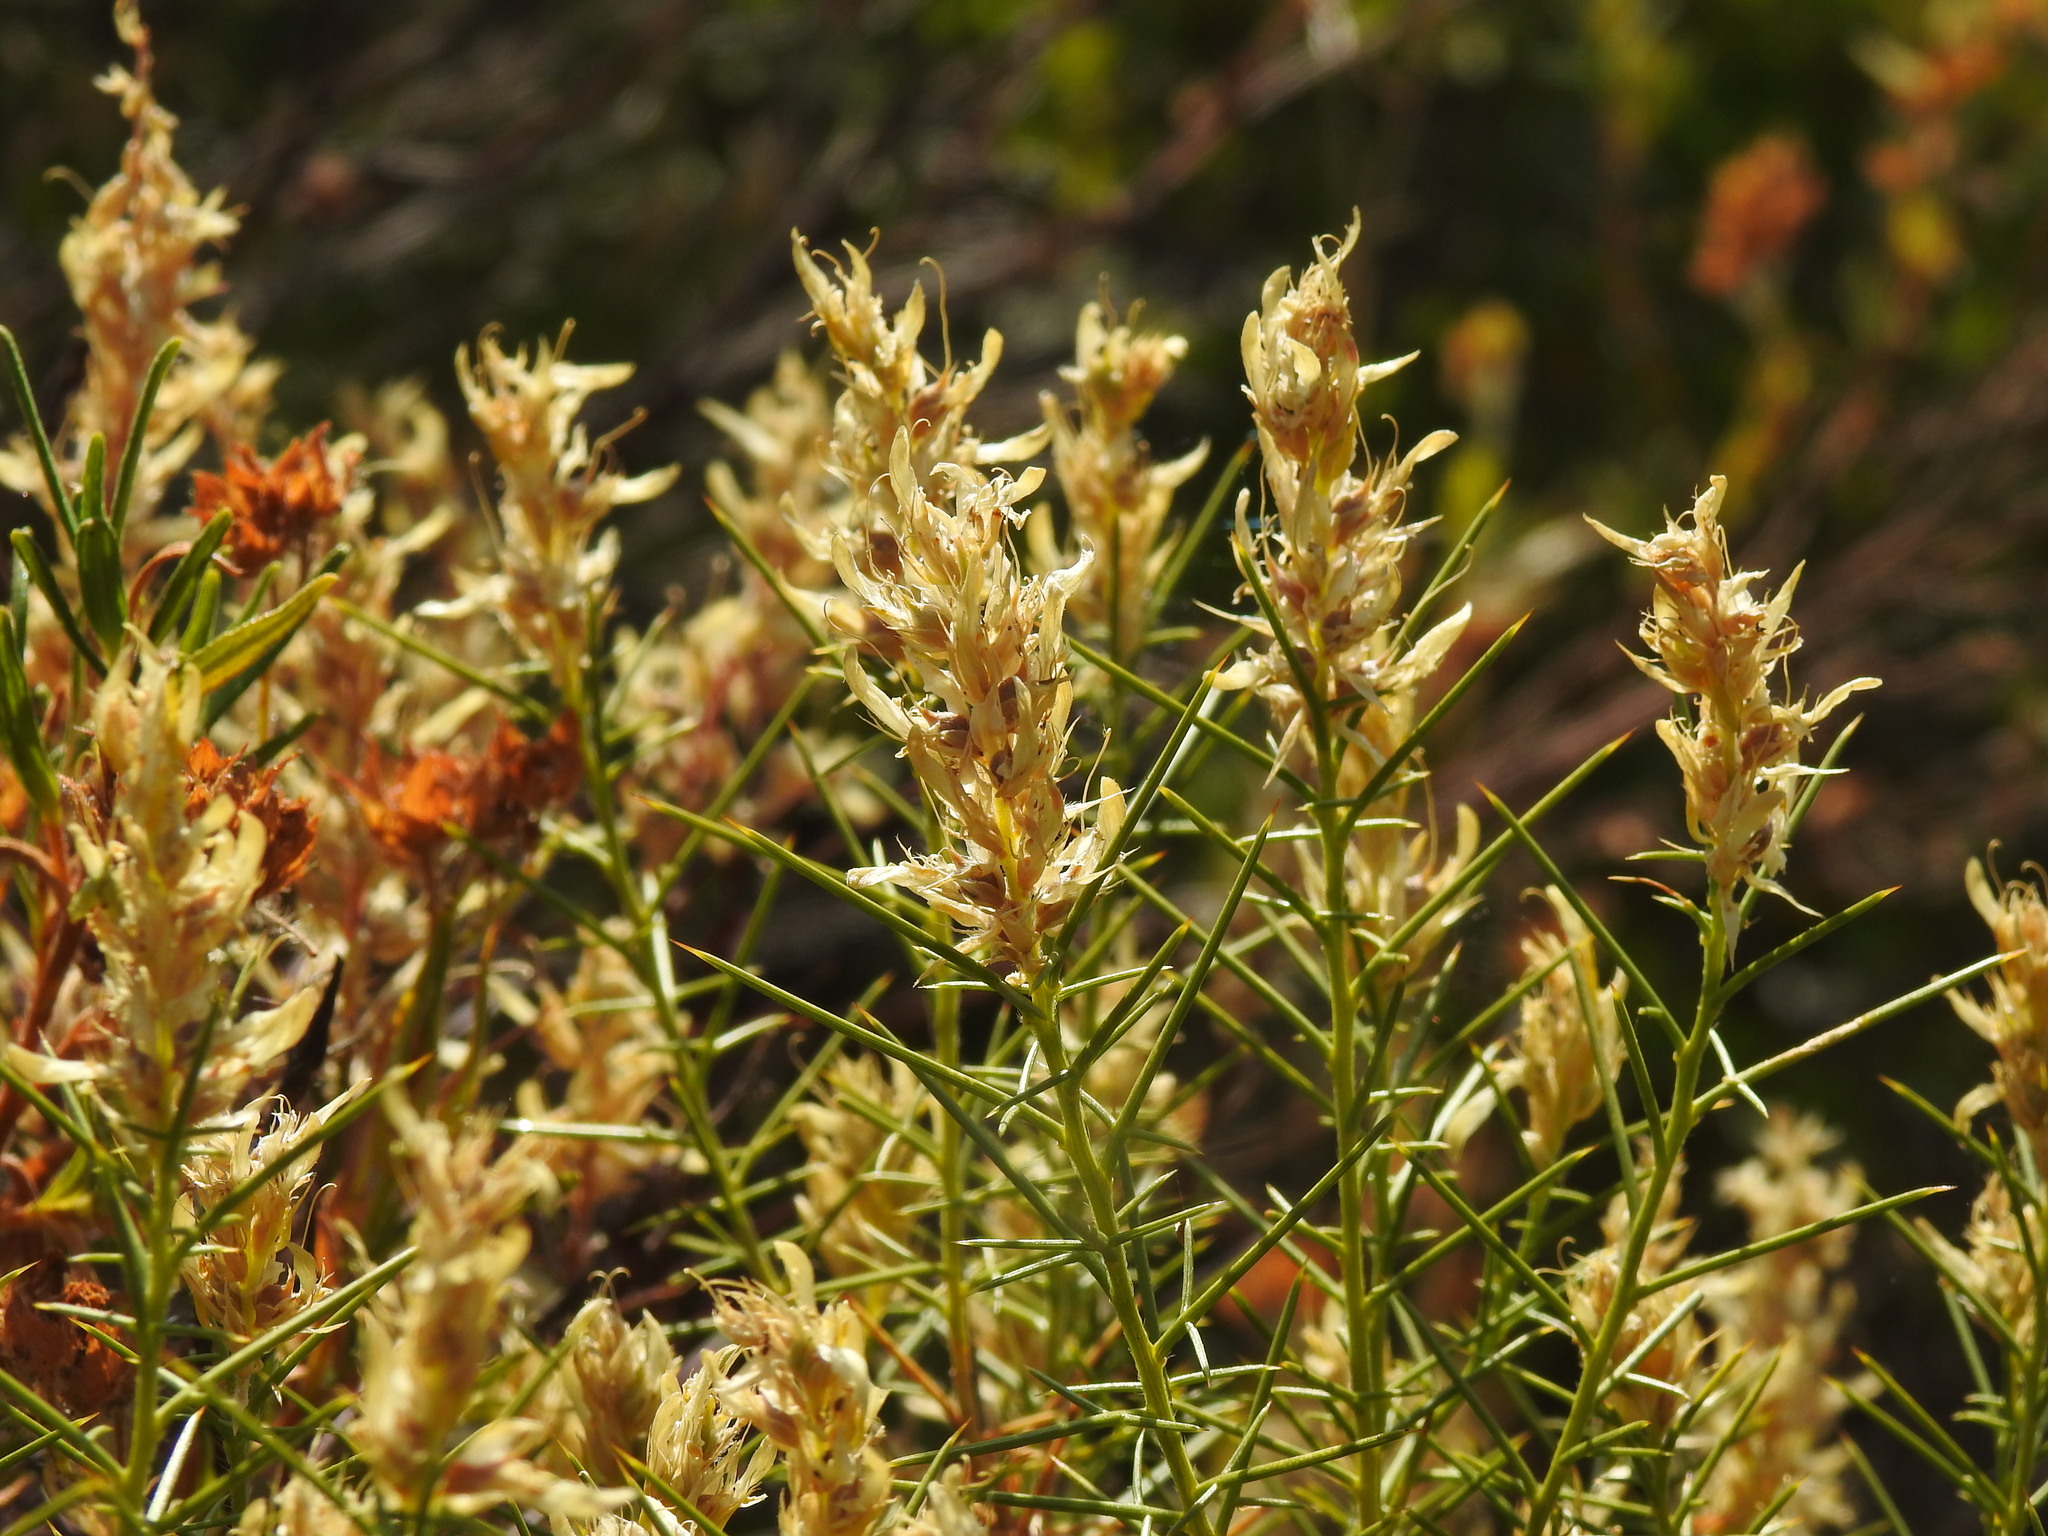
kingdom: Plantae
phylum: Tracheophyta
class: Magnoliopsida
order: Fabales
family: Fabaceae
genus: Genista
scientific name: Genista hirsuta
